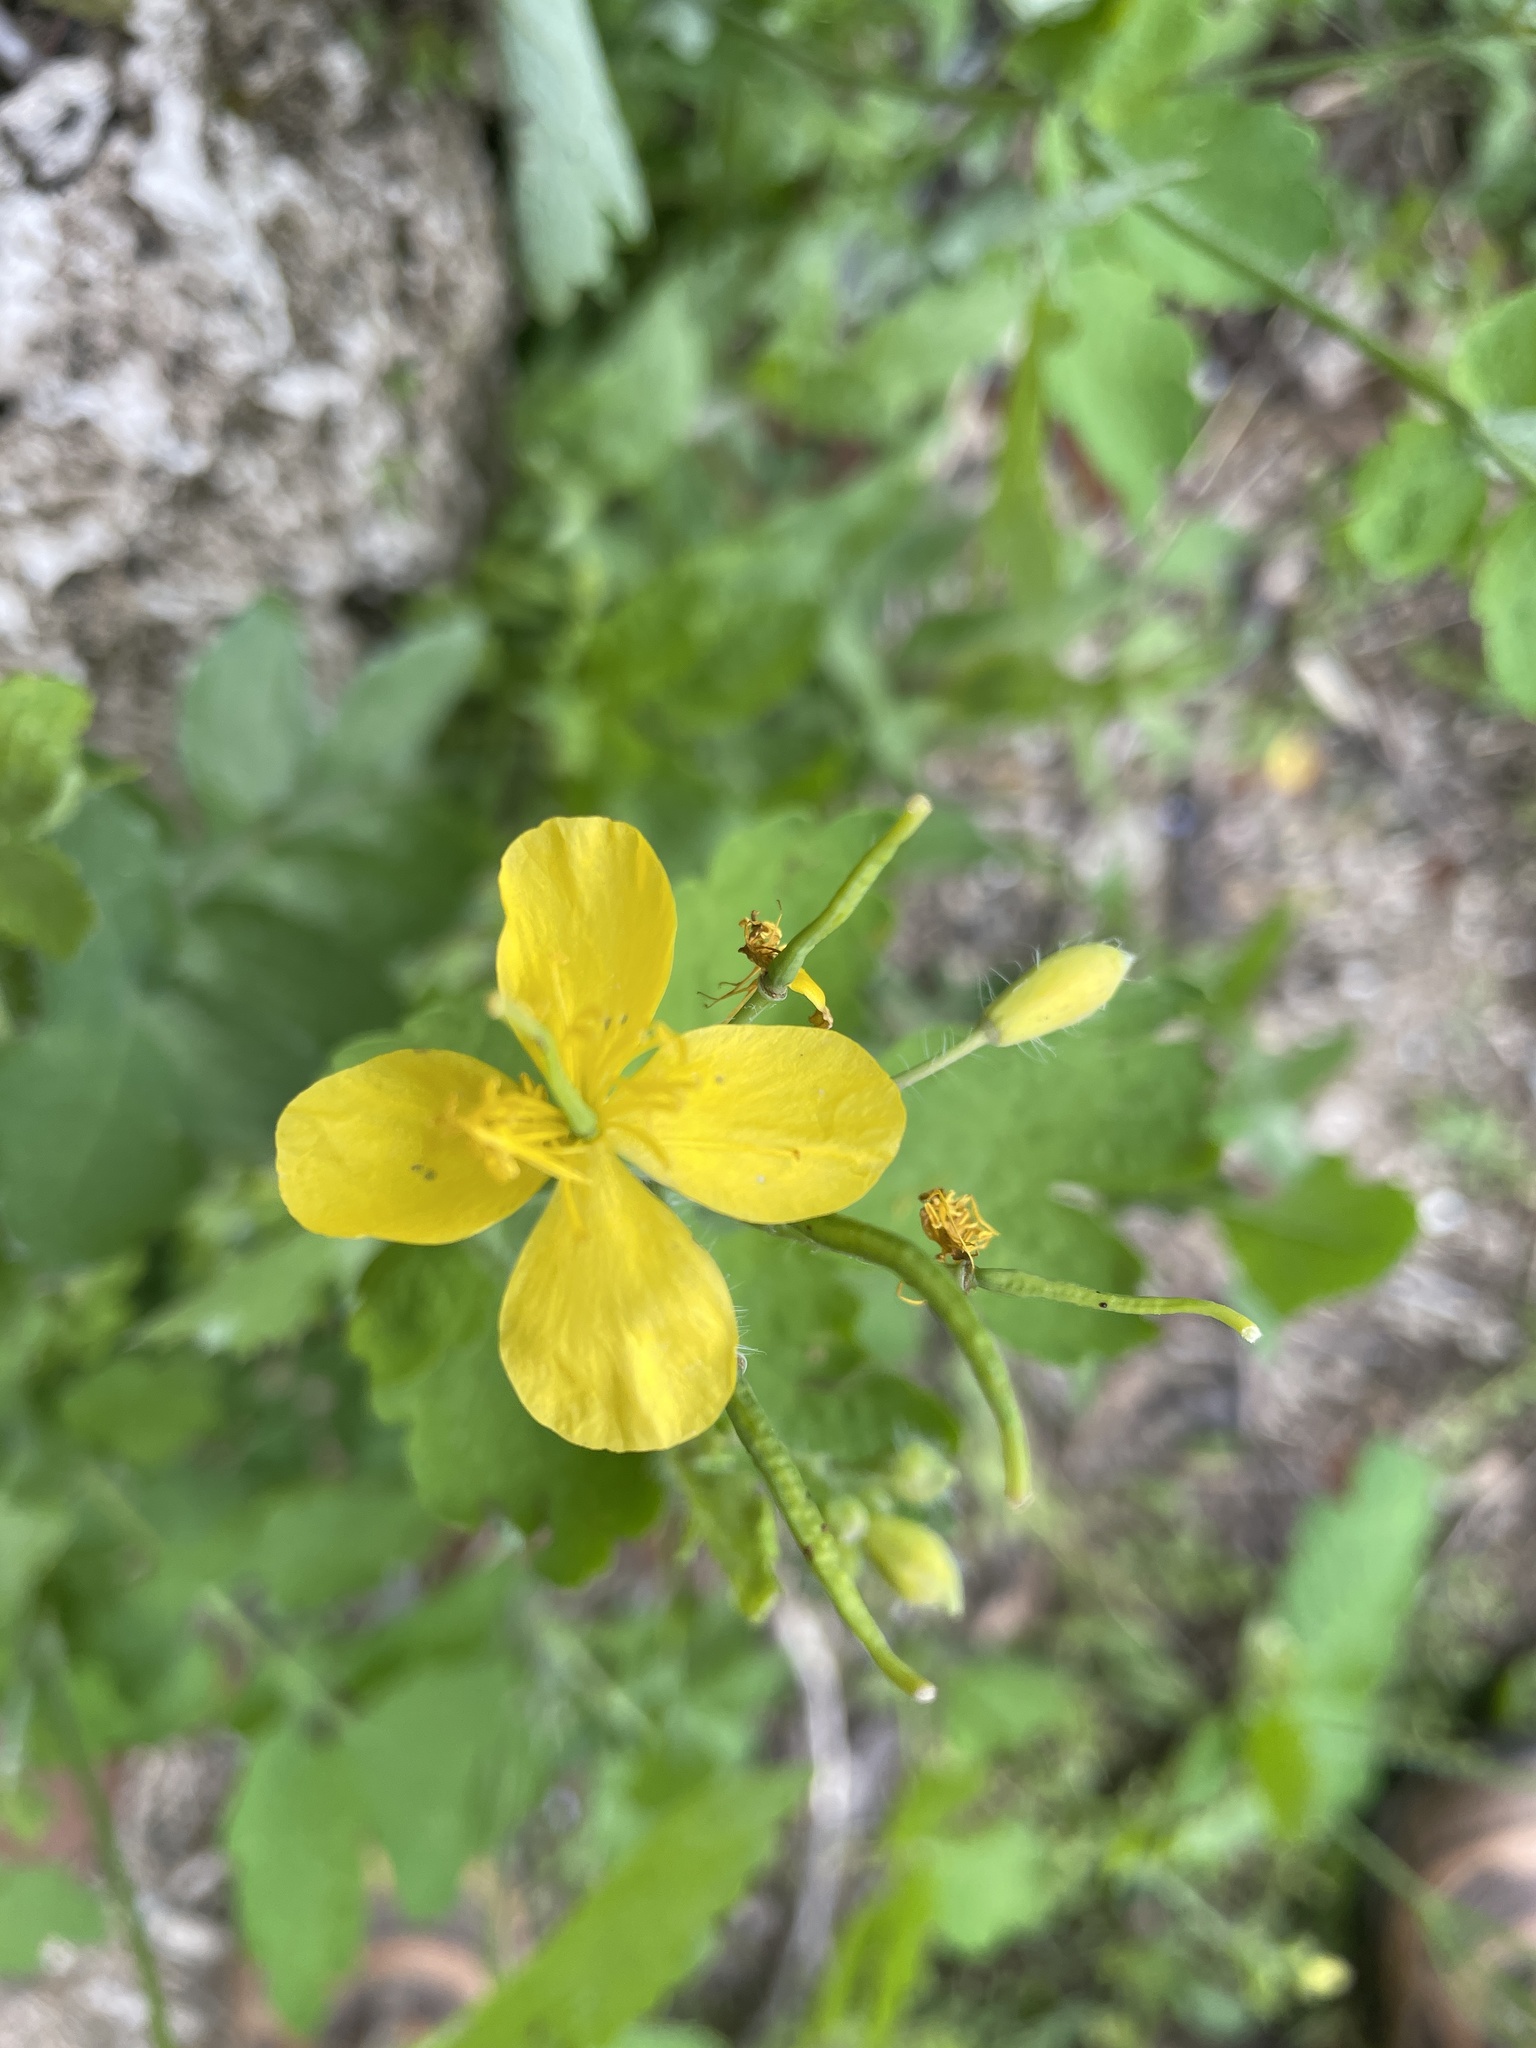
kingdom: Plantae
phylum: Tracheophyta
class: Magnoliopsida
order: Ranunculales
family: Papaveraceae
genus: Chelidonium
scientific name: Chelidonium majus
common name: Greater celandine
